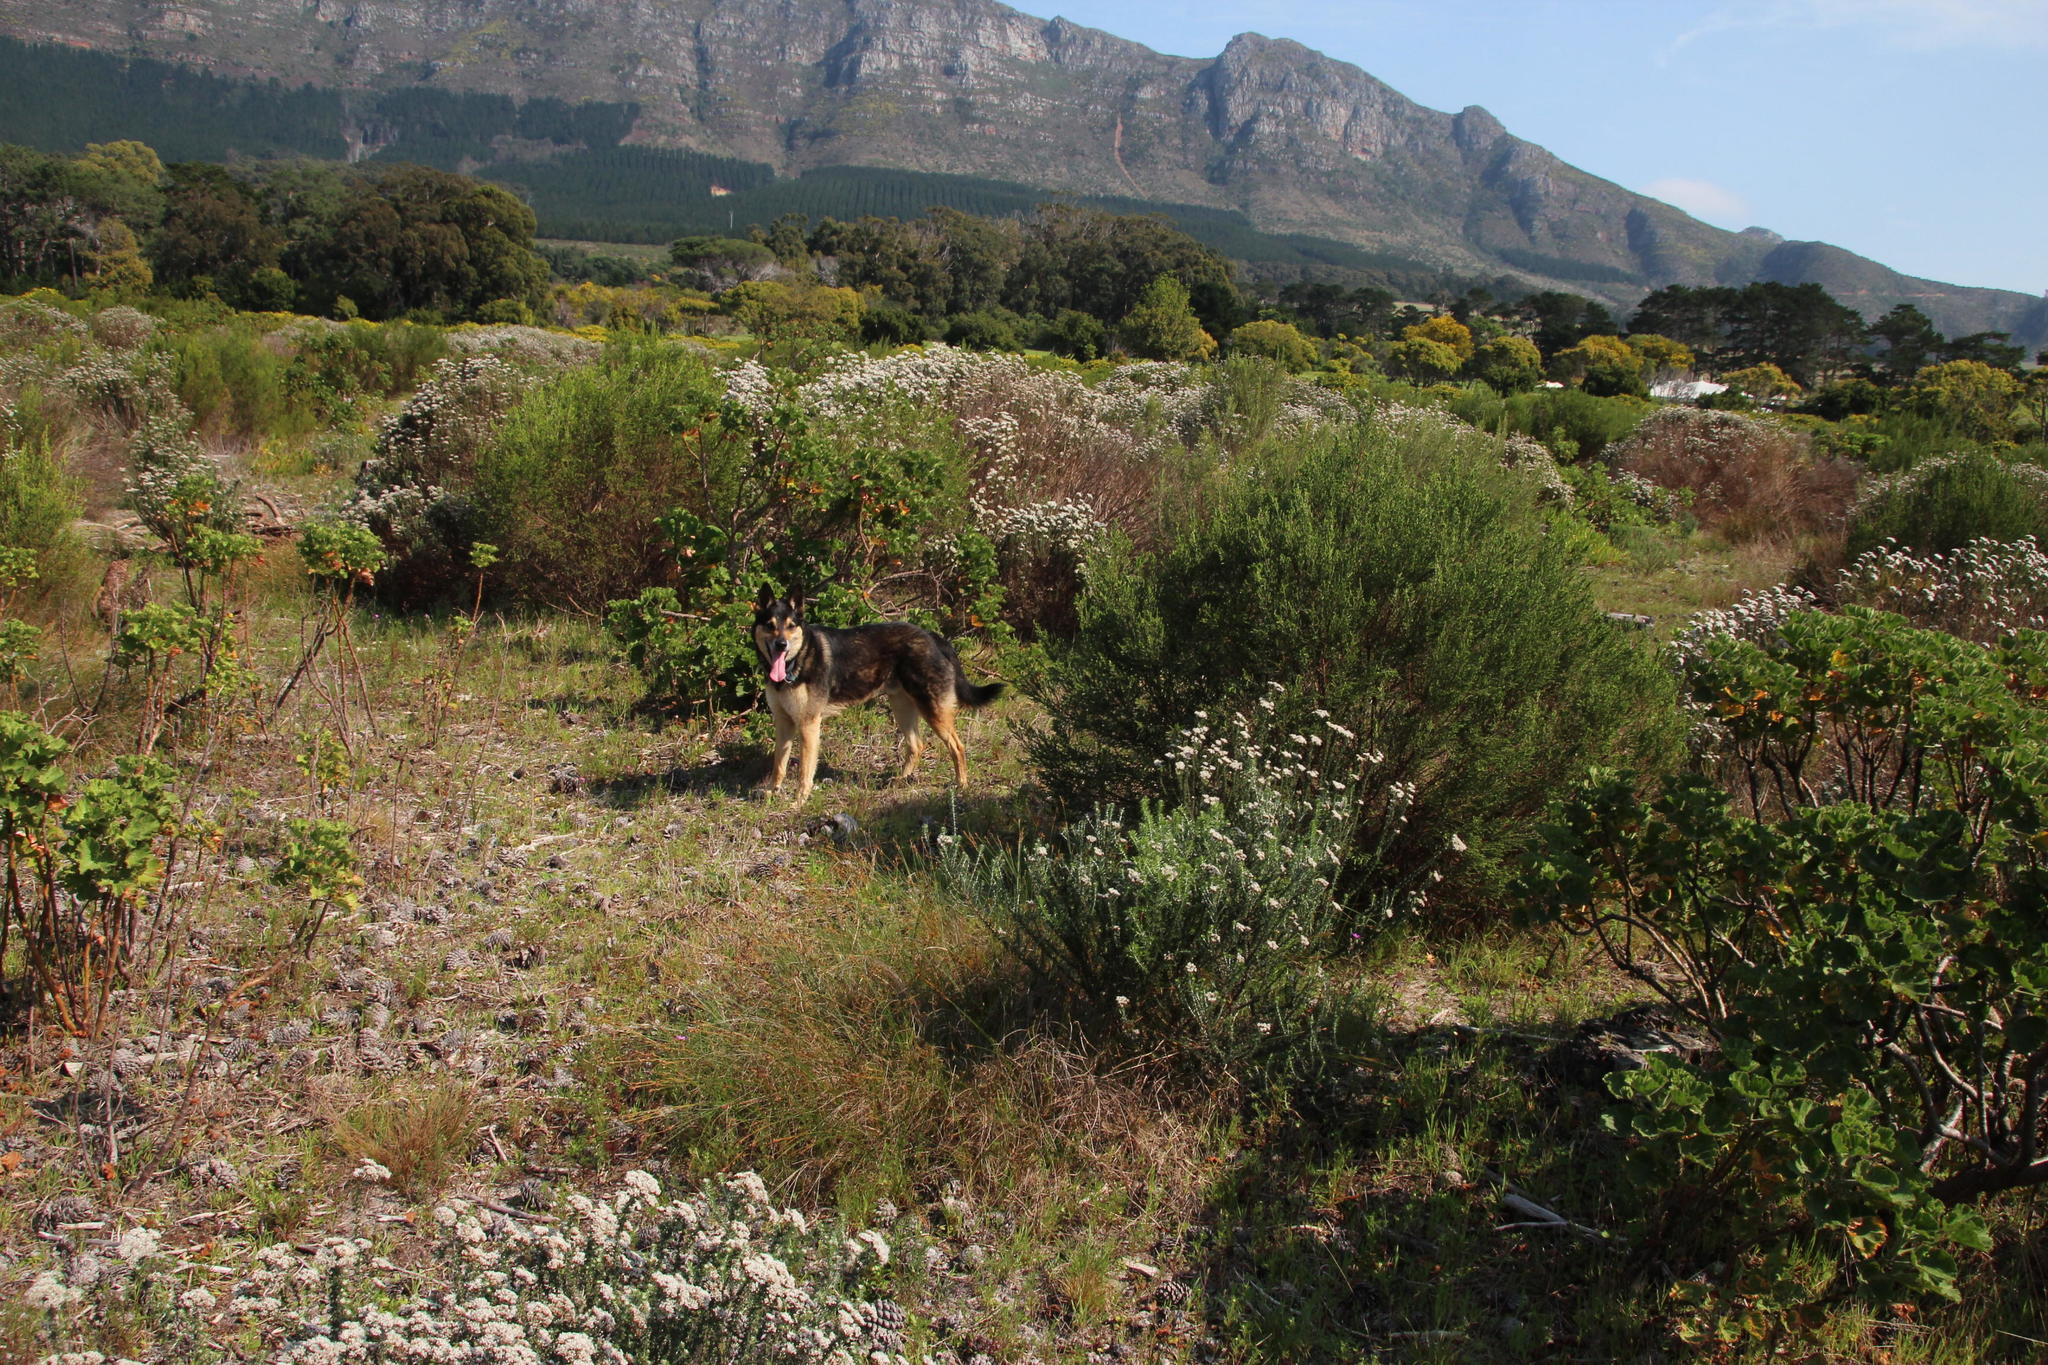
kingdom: Plantae
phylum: Tracheophyta
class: Magnoliopsida
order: Geraniales
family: Geraniaceae
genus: Pelargonium
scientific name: Pelargonium cucullatum
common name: Tree pelargonium
